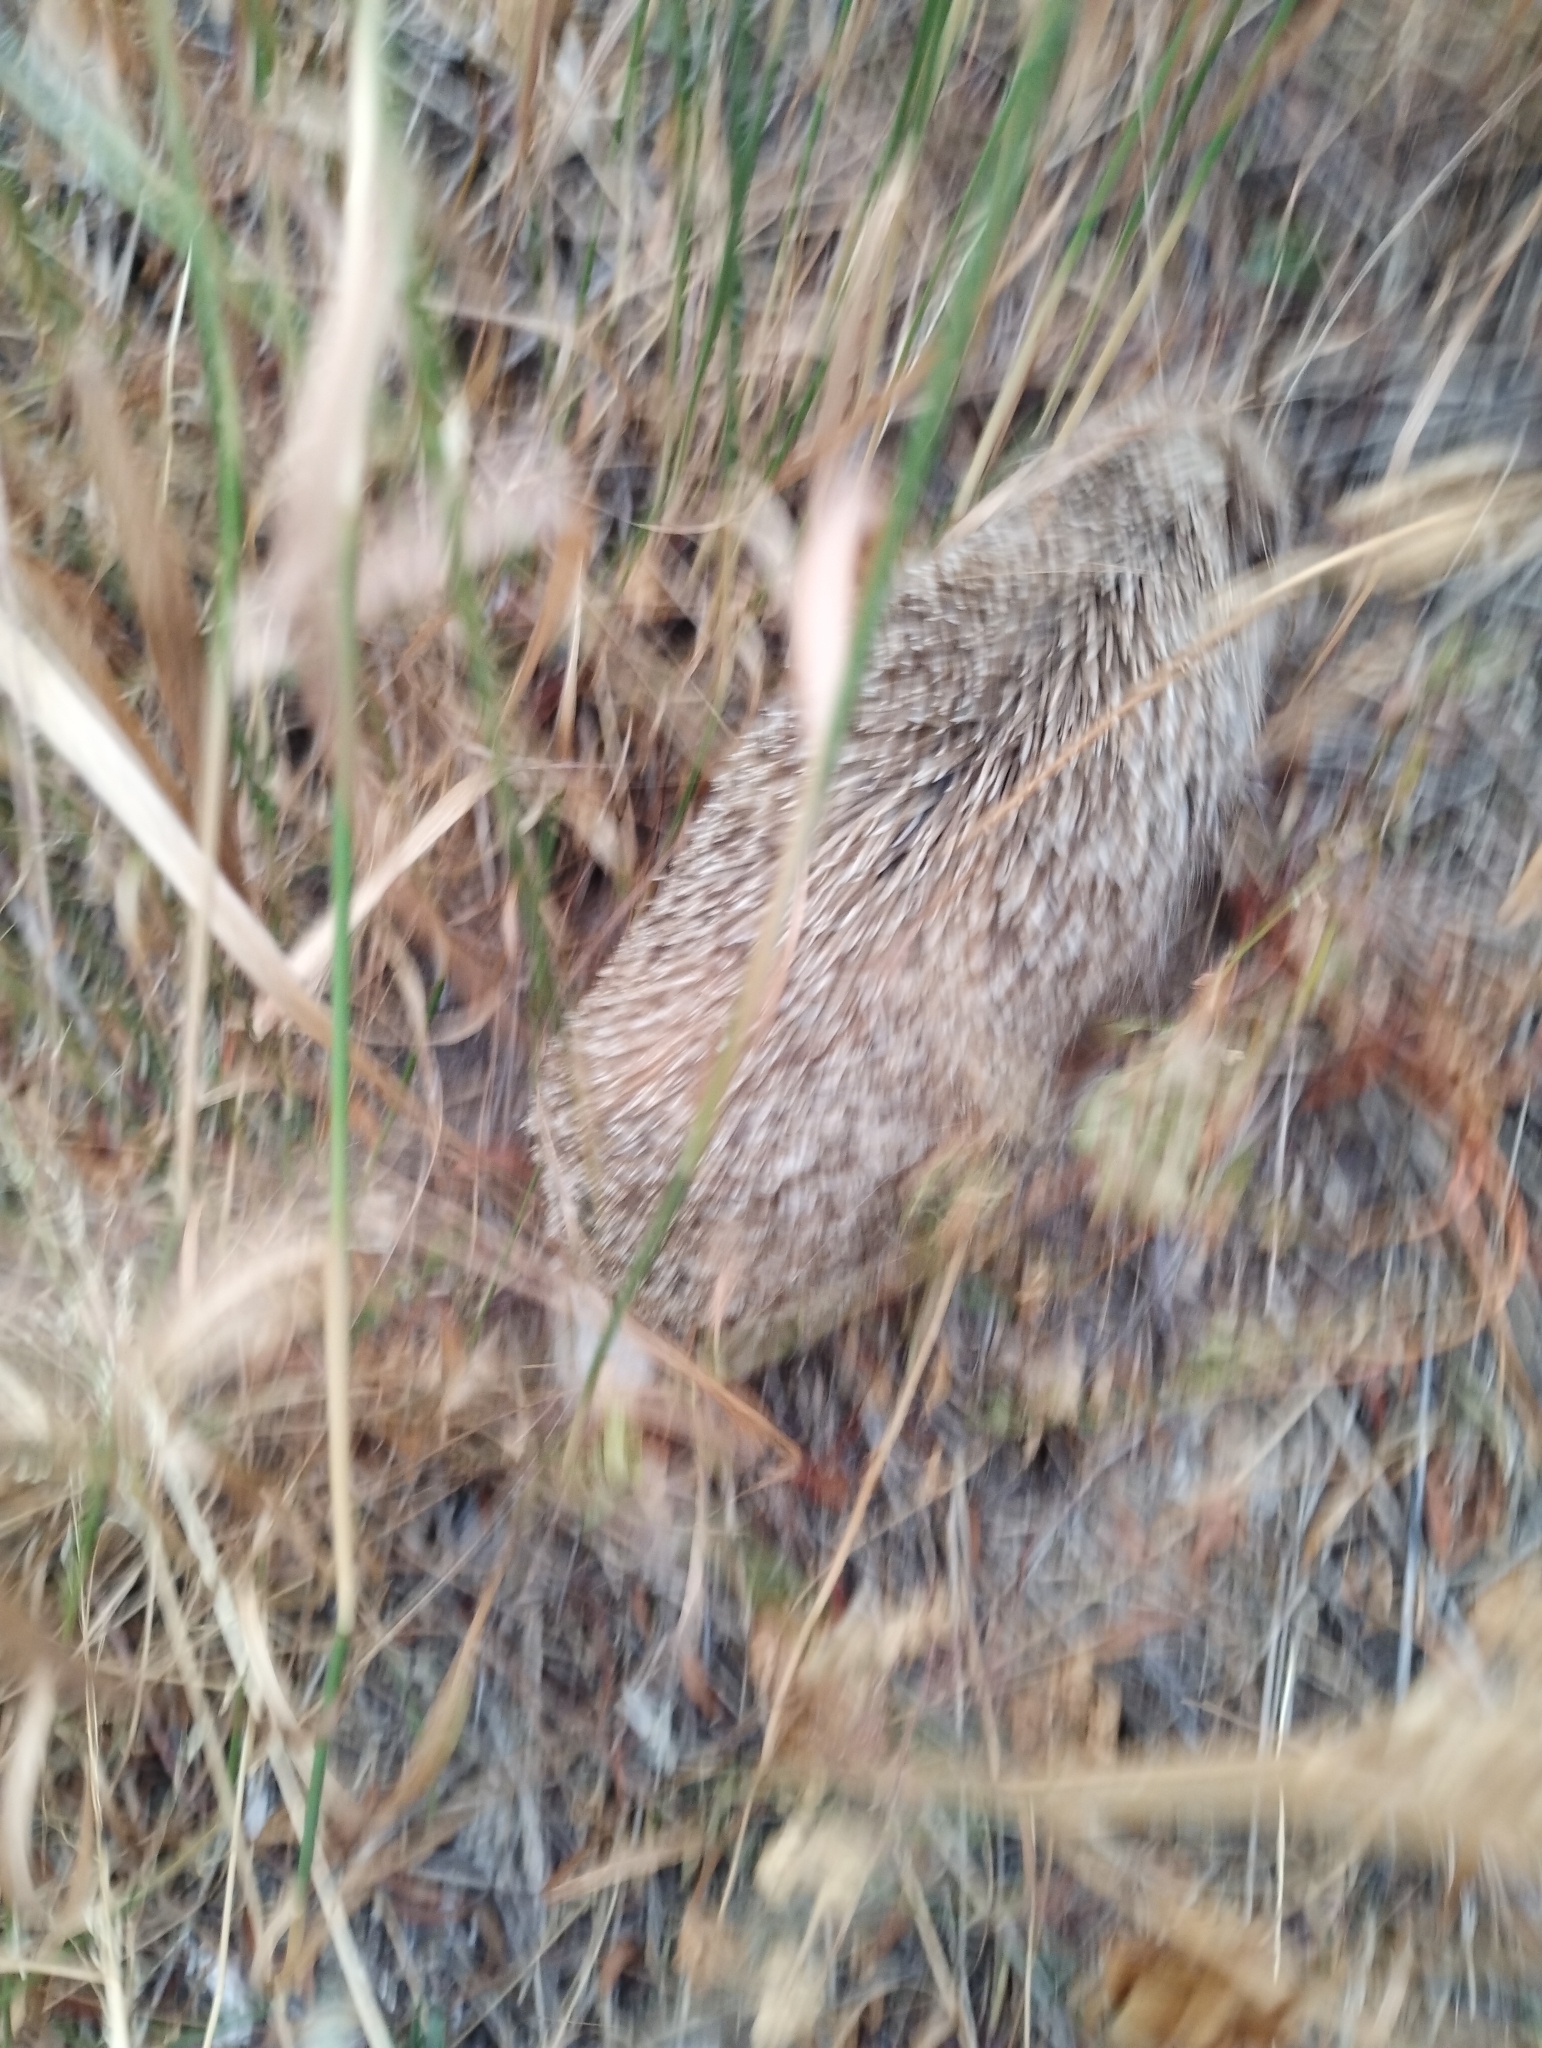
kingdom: Animalia
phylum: Chordata
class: Mammalia
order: Erinaceomorpha
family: Erinaceidae
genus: Erinaceus
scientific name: Erinaceus europaeus
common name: West european hedgehog
